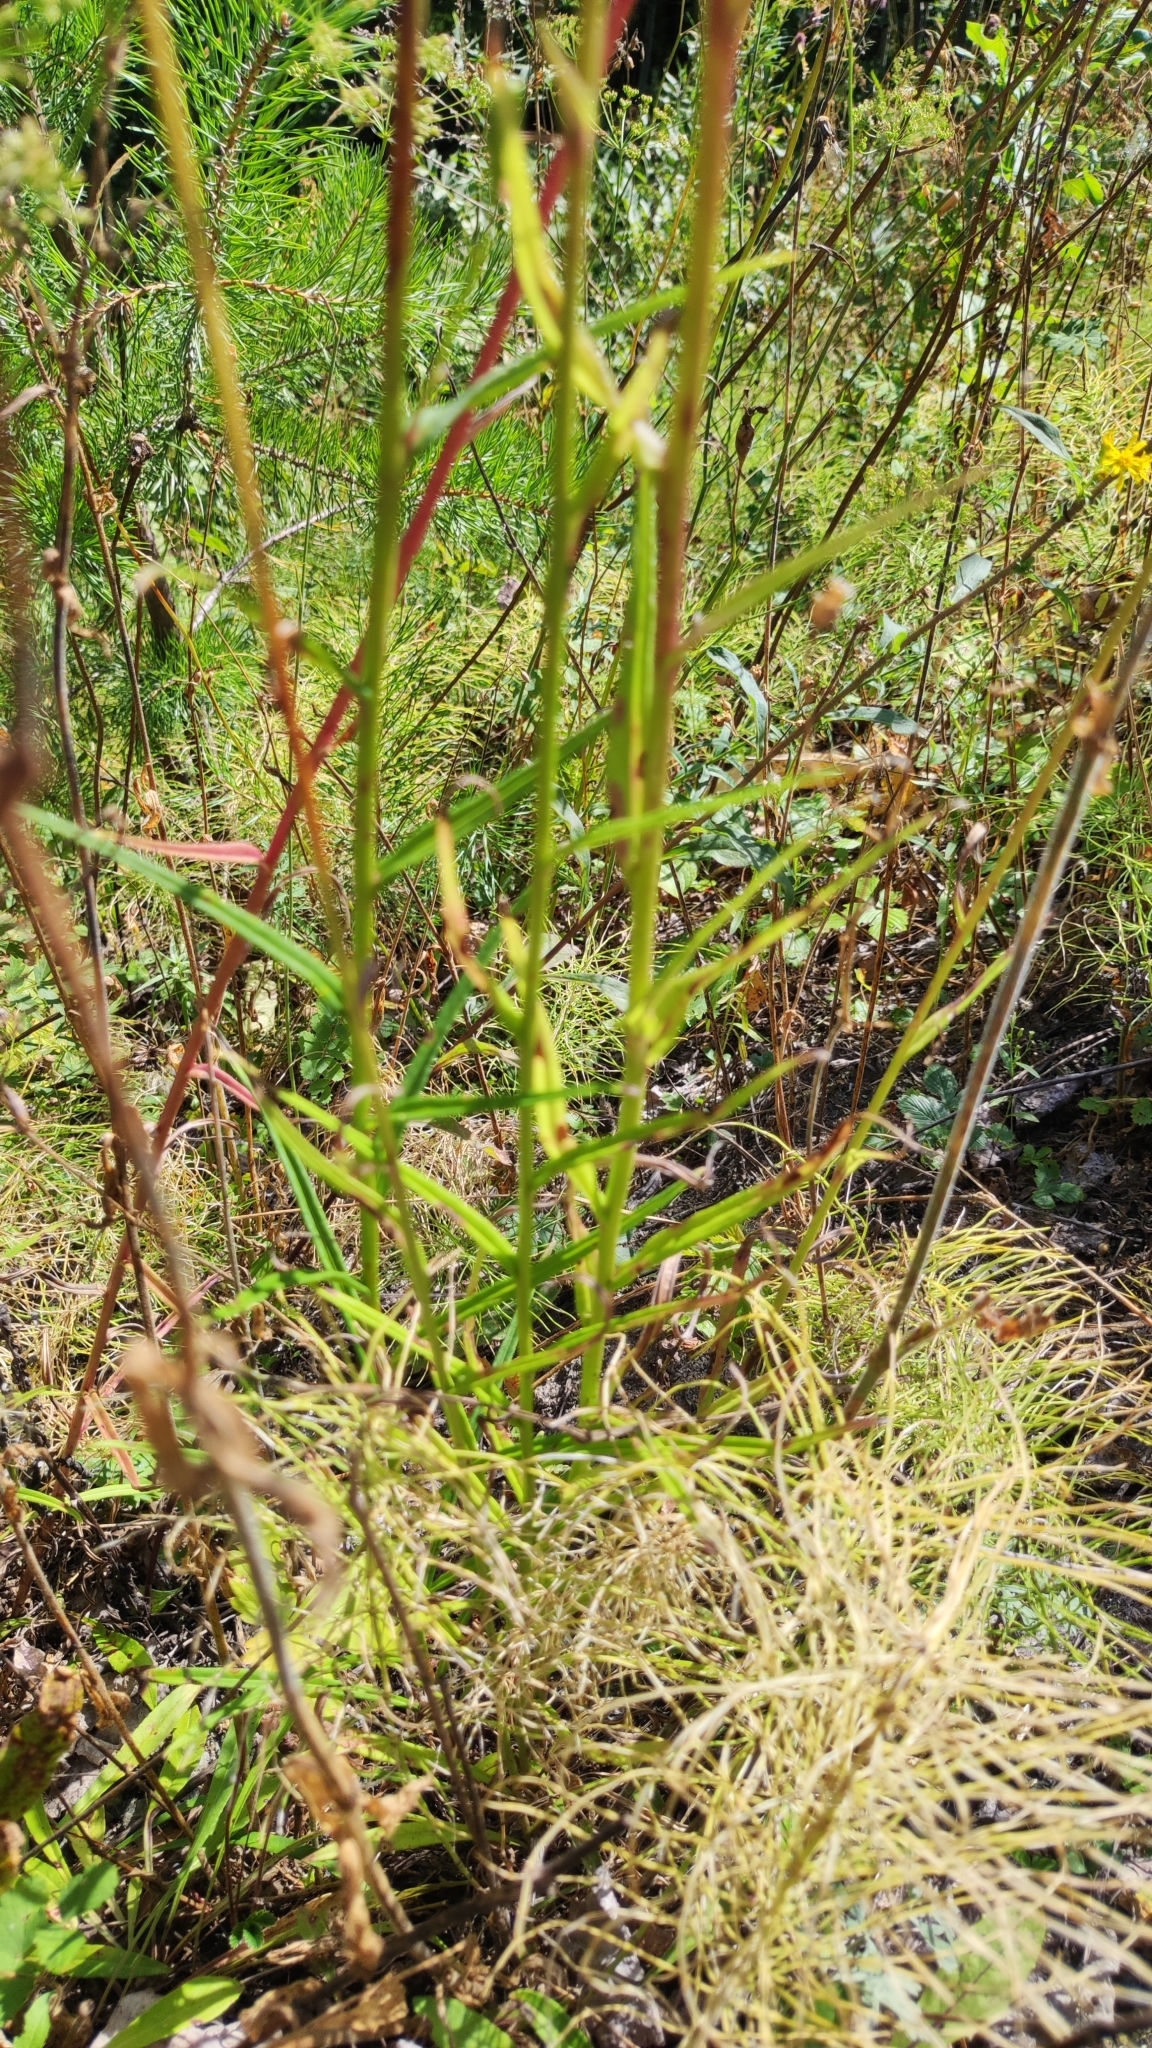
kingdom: Plantae
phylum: Tracheophyta
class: Magnoliopsida
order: Asterales
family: Campanulaceae
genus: Campanula
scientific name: Campanula persicifolia
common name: Peach-leaved bellflower
